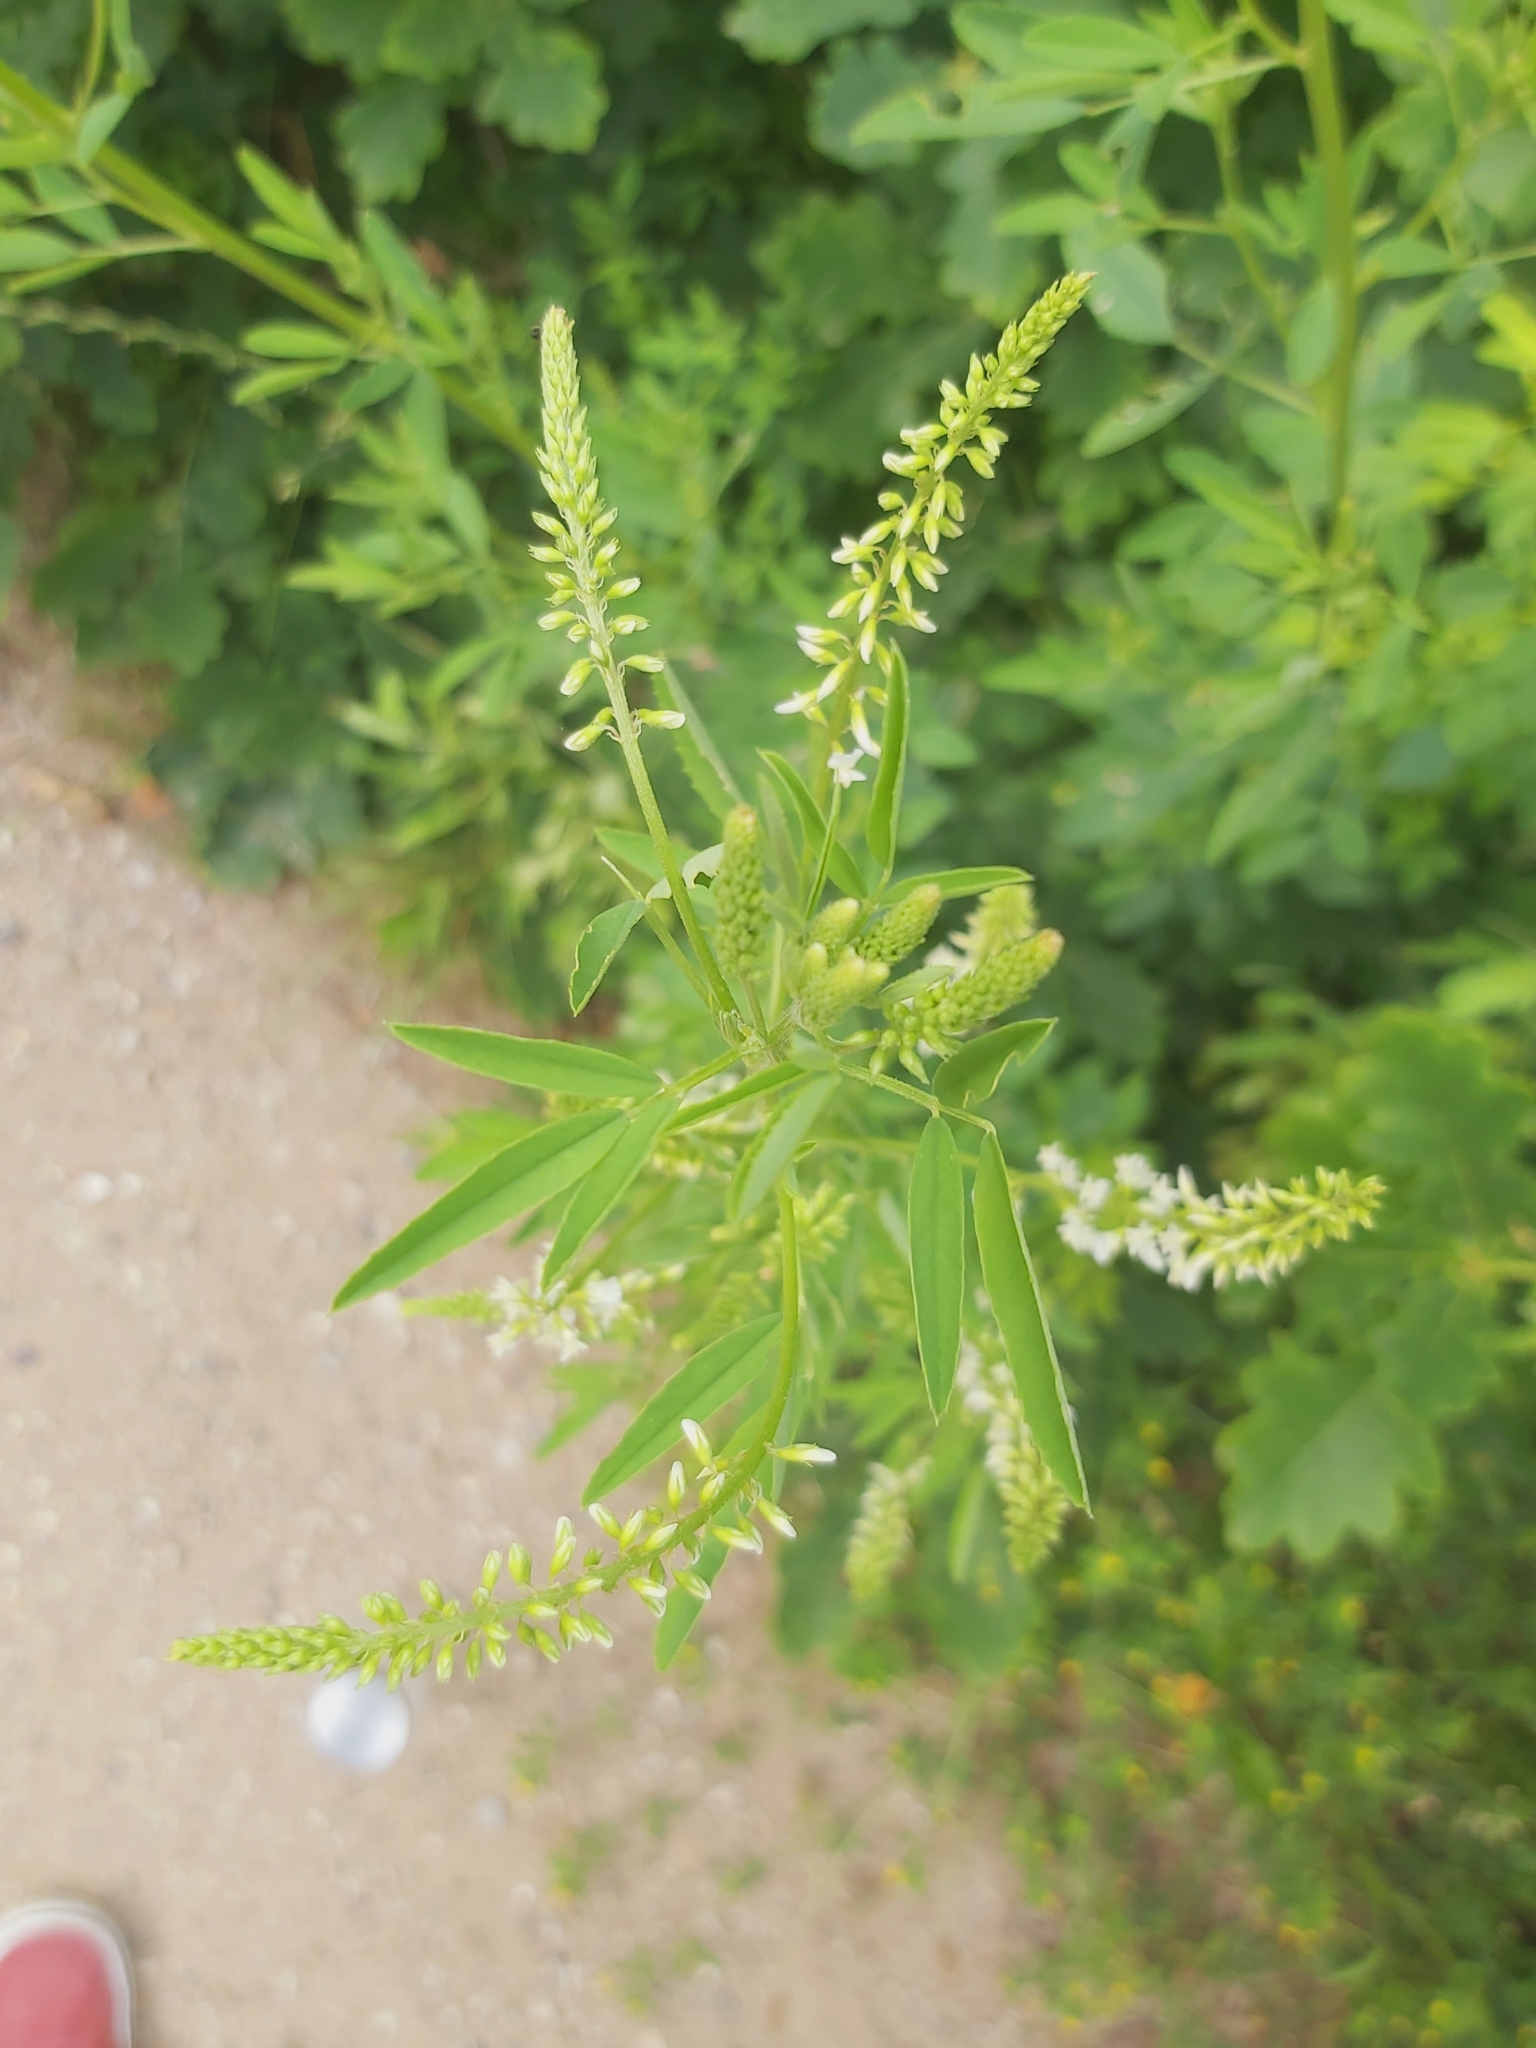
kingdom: Plantae
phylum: Tracheophyta
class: Magnoliopsida
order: Fabales
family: Fabaceae
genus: Melilotus
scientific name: Melilotus albus
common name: White melilot
